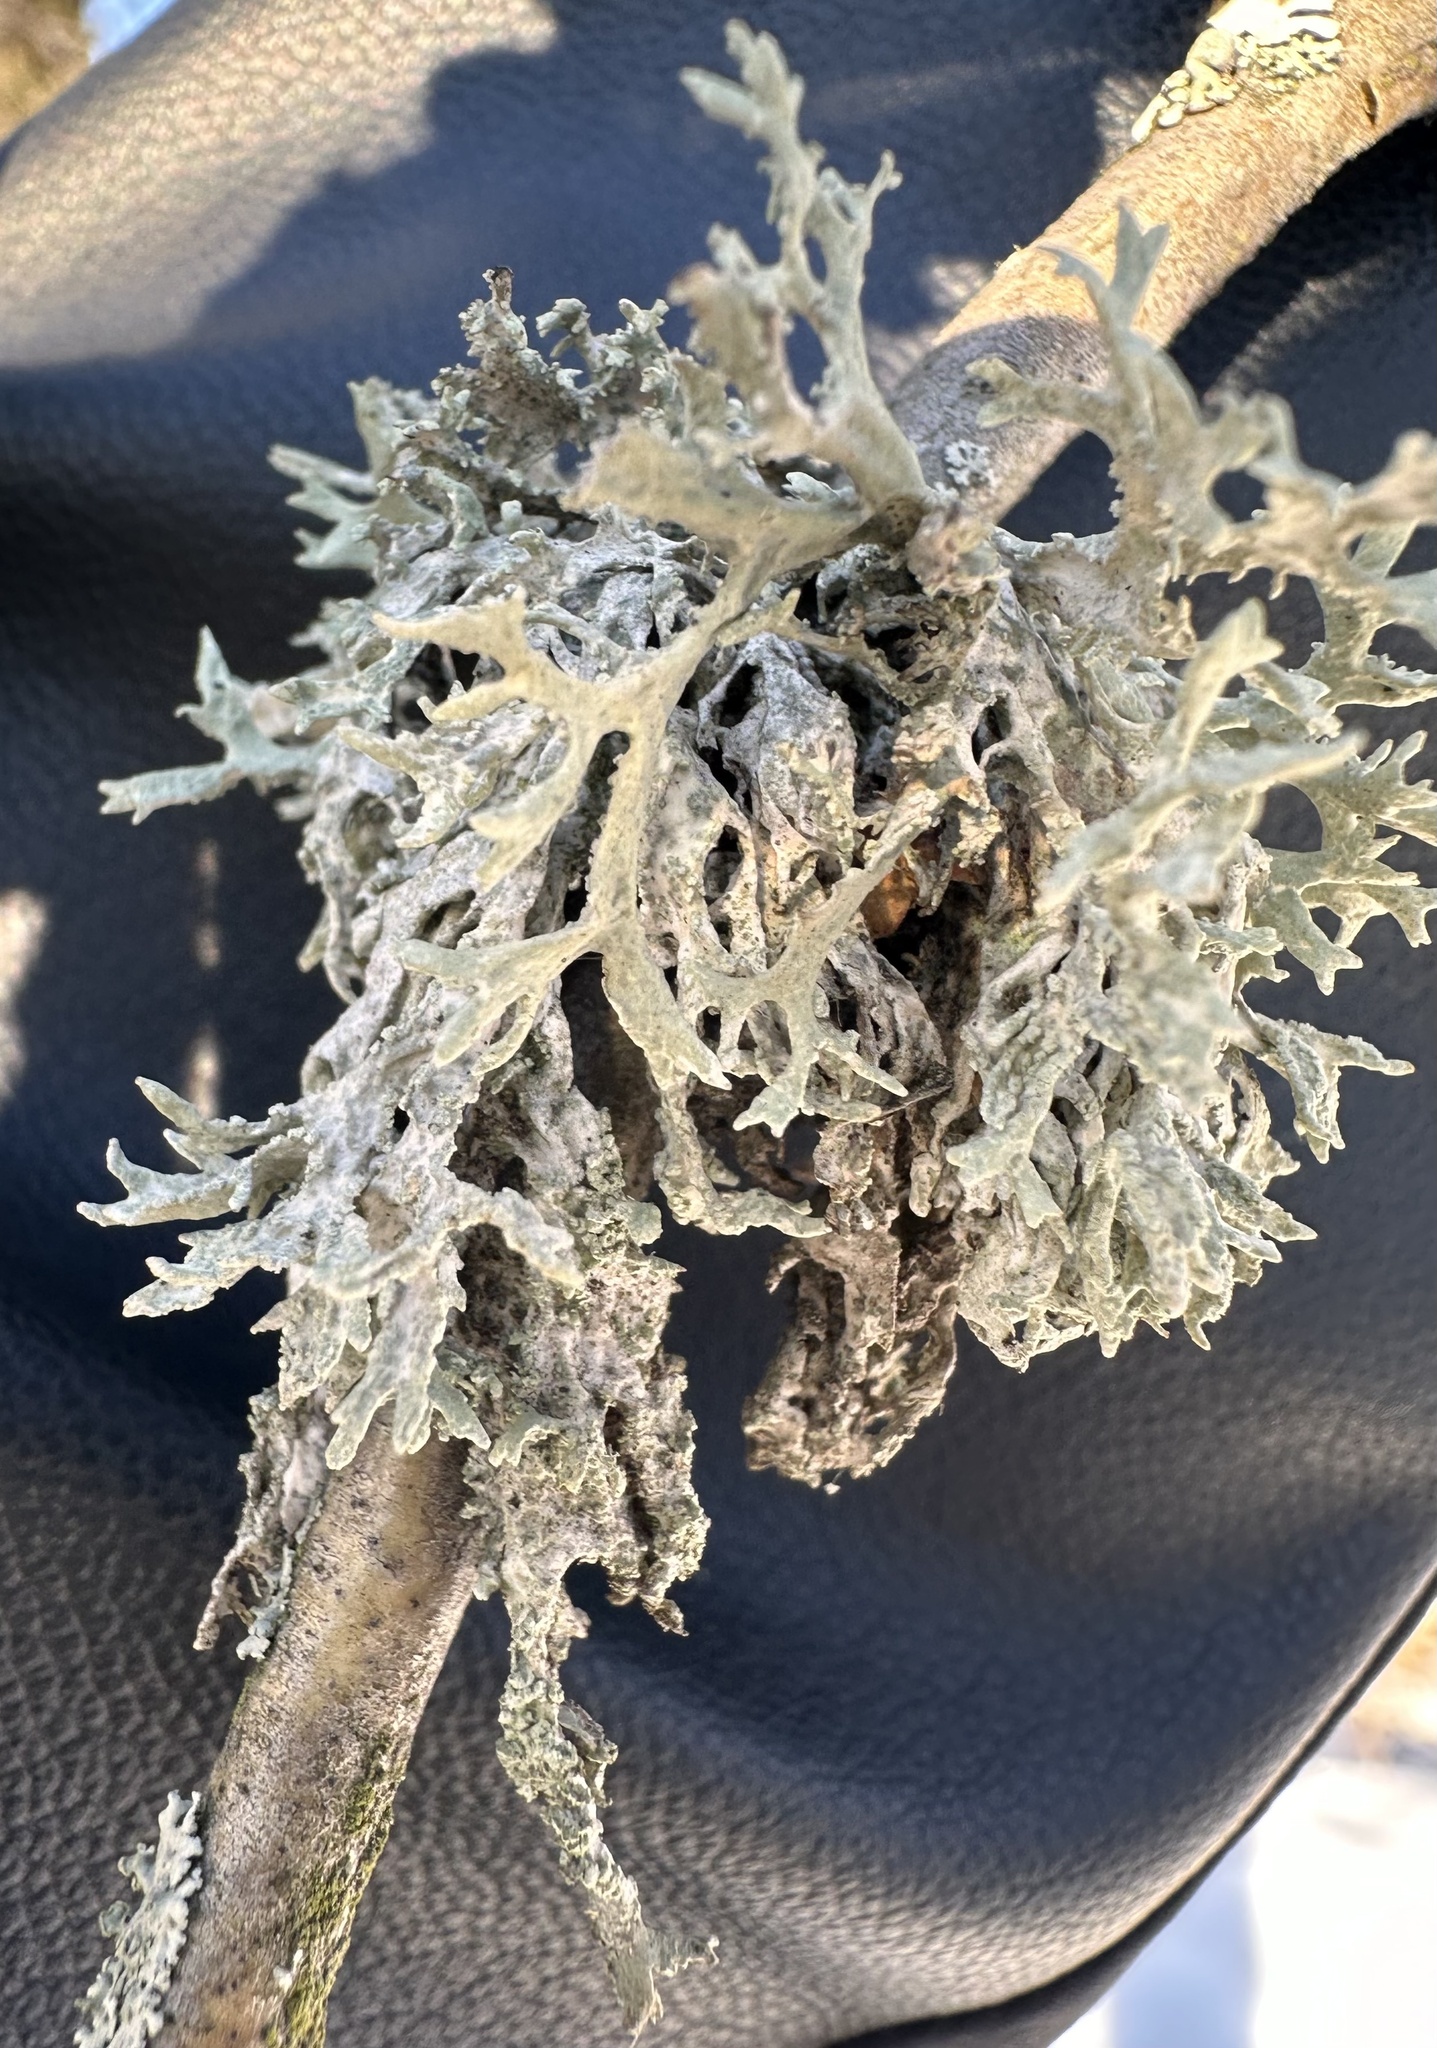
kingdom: Fungi
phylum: Ascomycota
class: Lecanoromycetes
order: Lecanorales
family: Parmeliaceae
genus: Evernia
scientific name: Evernia prunastri
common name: Oak moss
